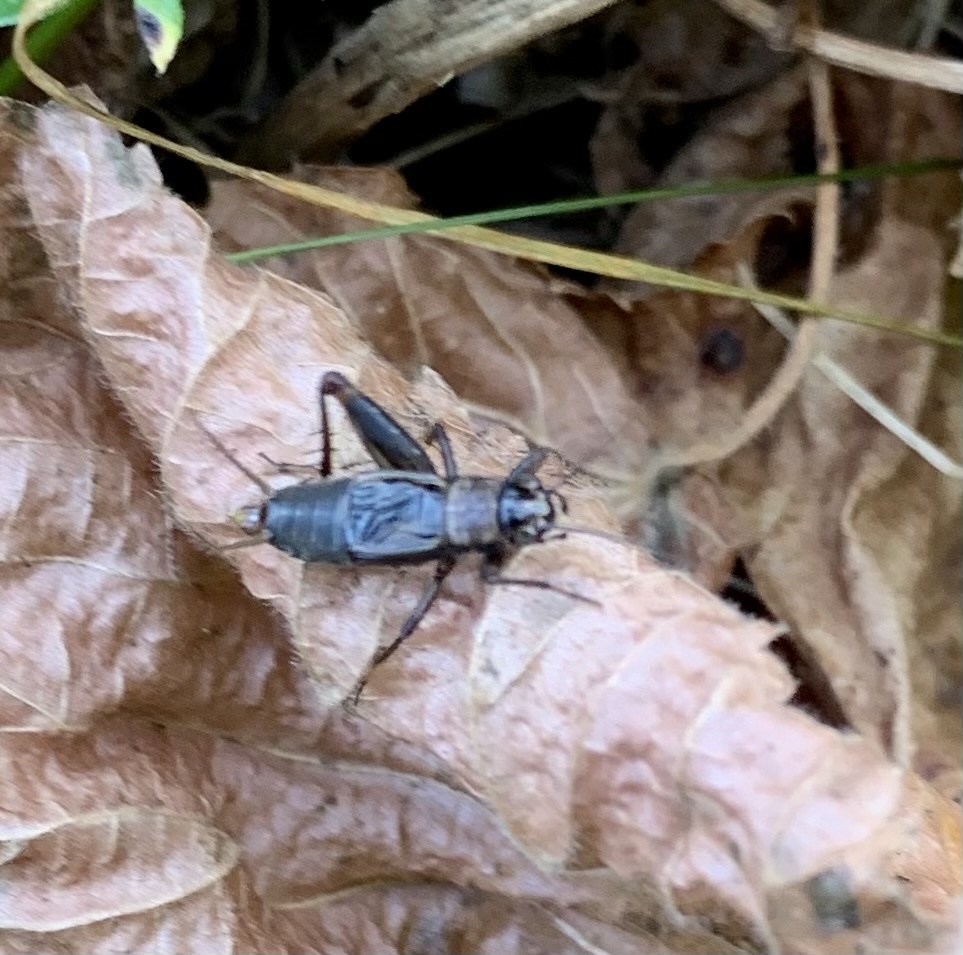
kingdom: Animalia
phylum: Arthropoda
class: Insecta
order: Orthoptera
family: Trigonidiidae
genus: Nemobius
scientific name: Nemobius sylvestris
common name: Wood-cricket
